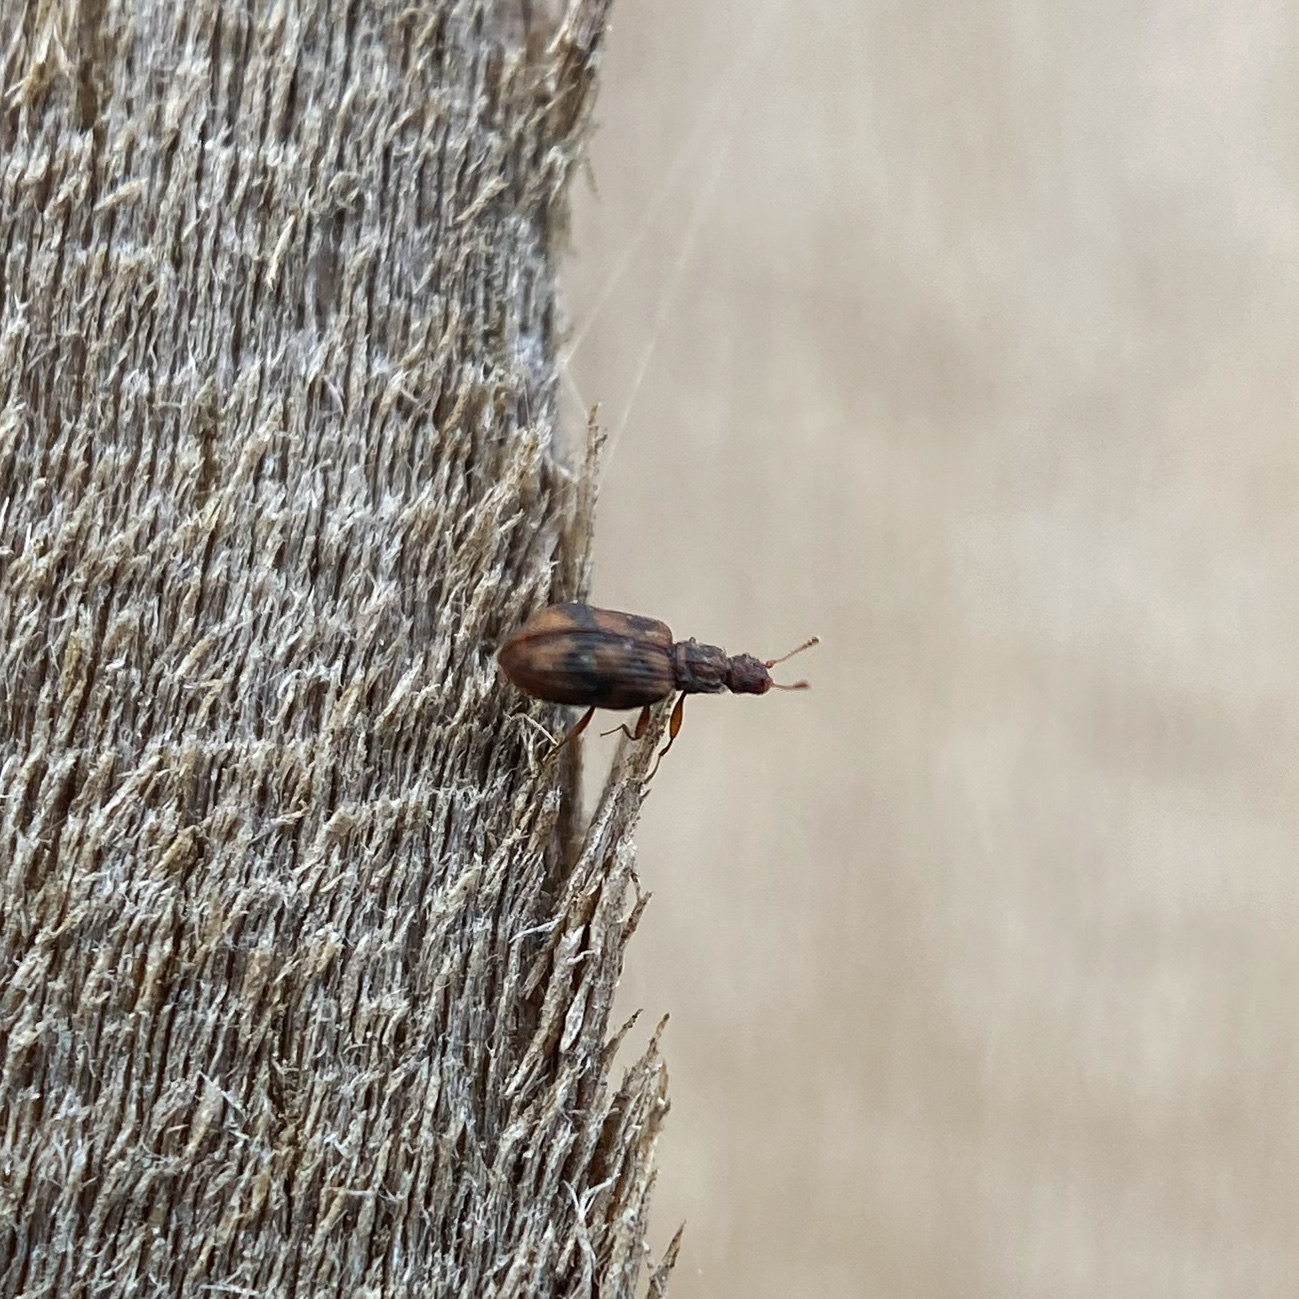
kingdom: Animalia
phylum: Arthropoda
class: Insecta
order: Coleoptera
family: Latridiidae
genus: Cartodere
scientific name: Cartodere bifasciata
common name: Plaster beetle
